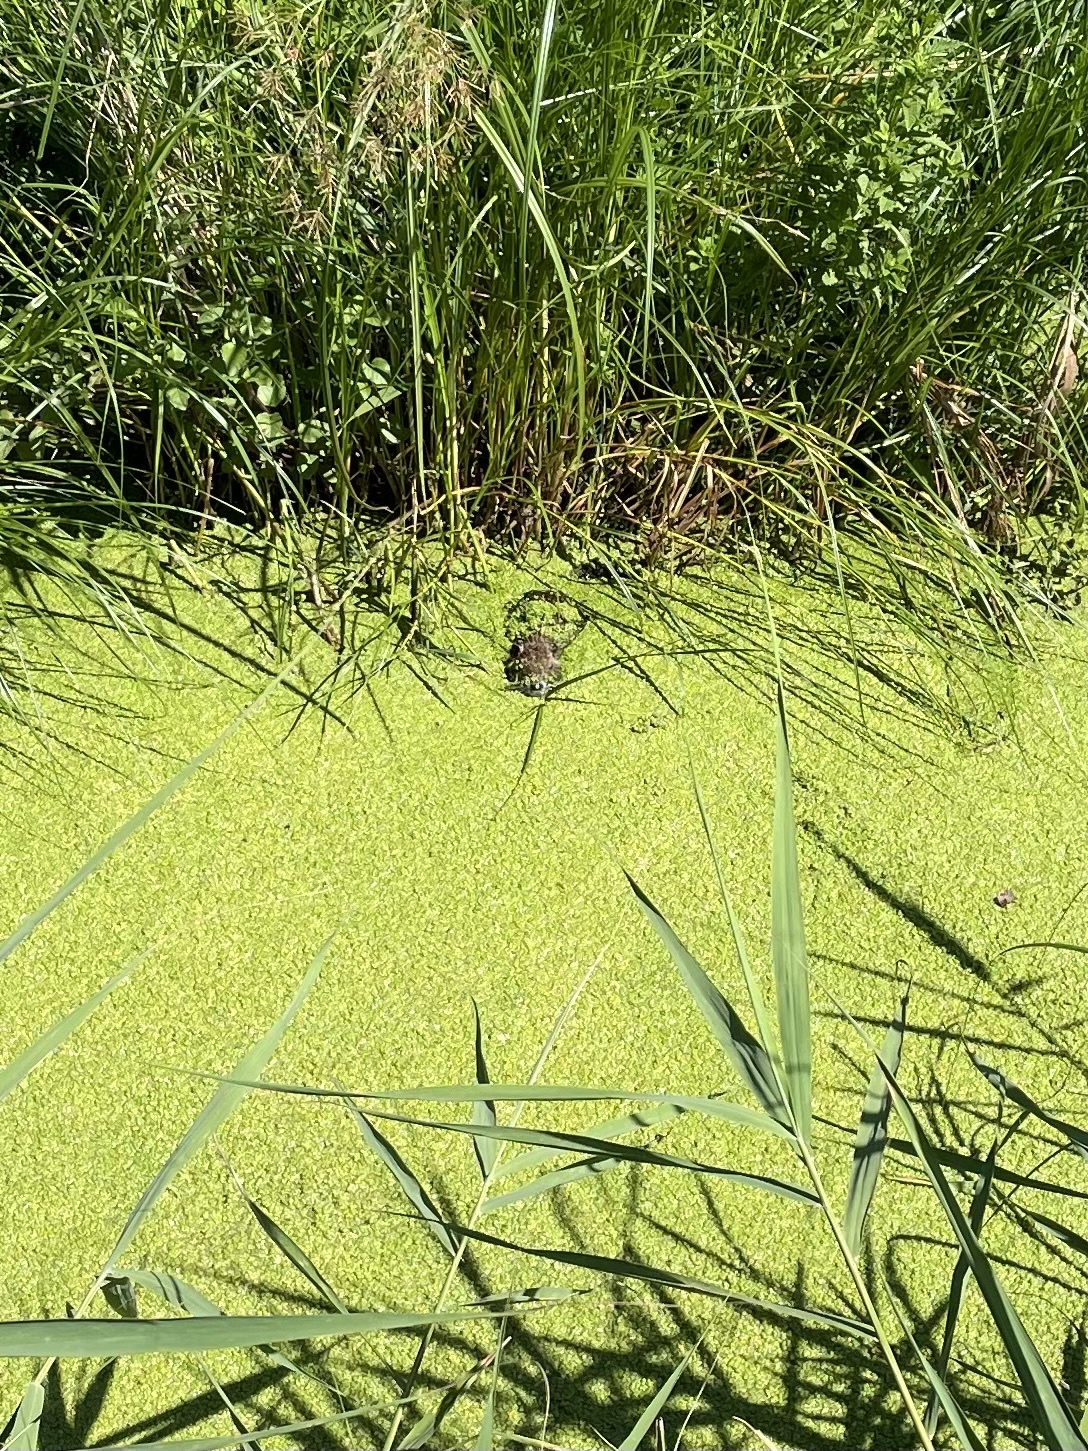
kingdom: Animalia
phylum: Chordata
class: Mammalia
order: Rodentia
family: Myocastoridae
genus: Myocastor
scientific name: Myocastor coypus
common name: Coypu
